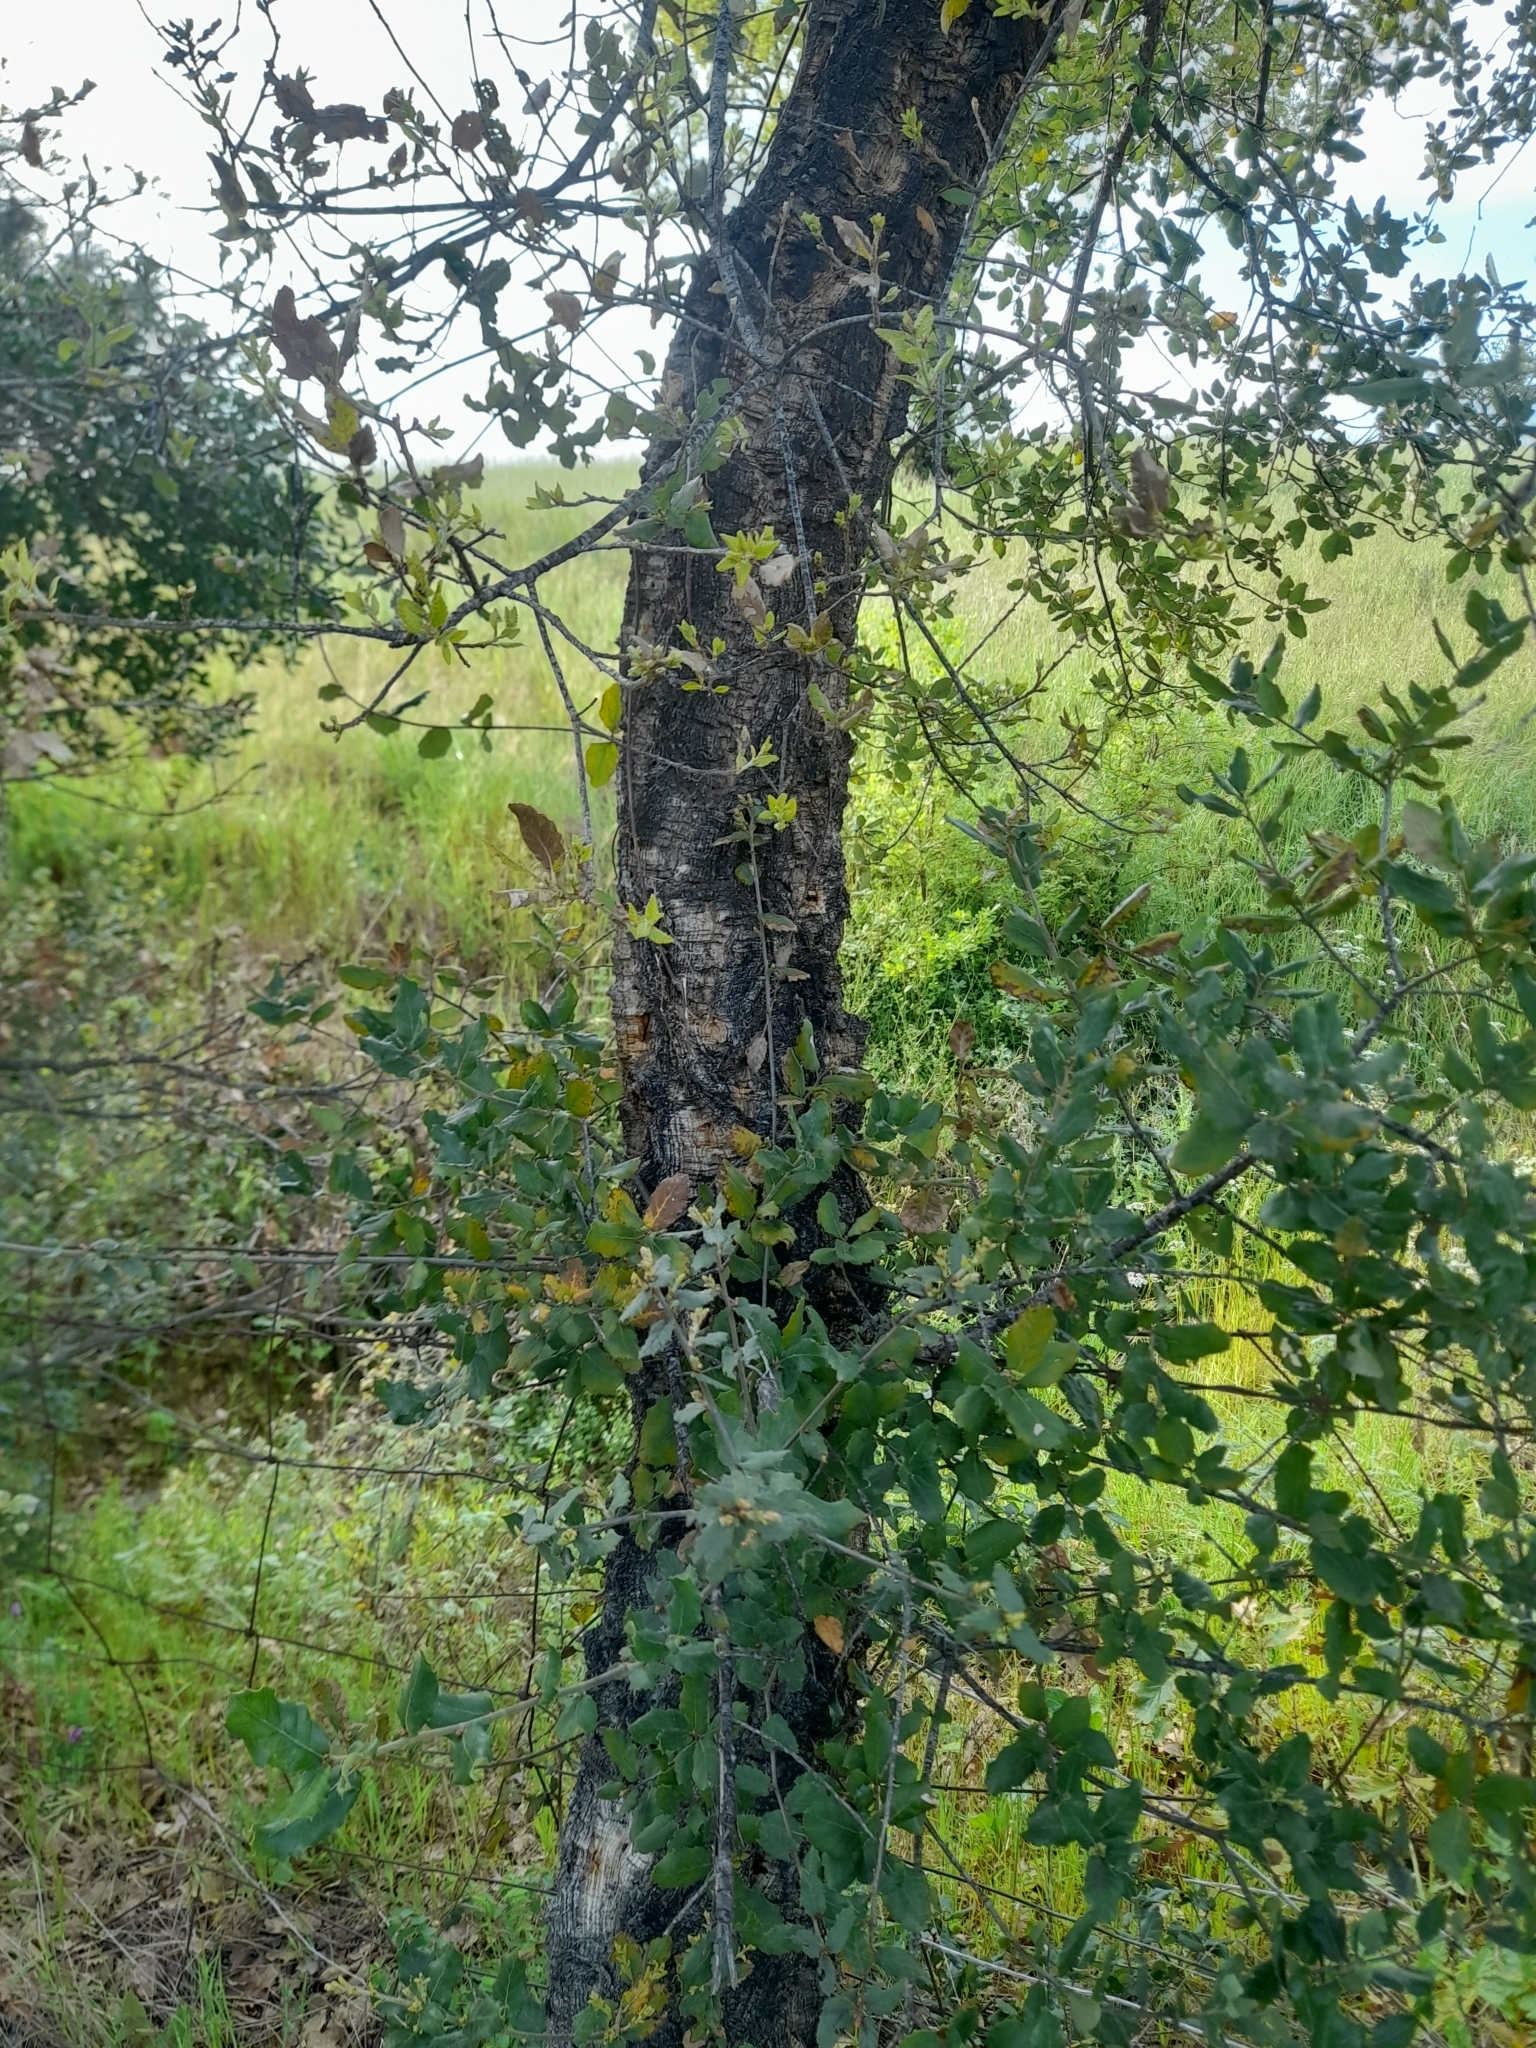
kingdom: Plantae
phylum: Tracheophyta
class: Magnoliopsida
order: Fagales
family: Fagaceae
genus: Quercus
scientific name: Quercus suber
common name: Cork oak
